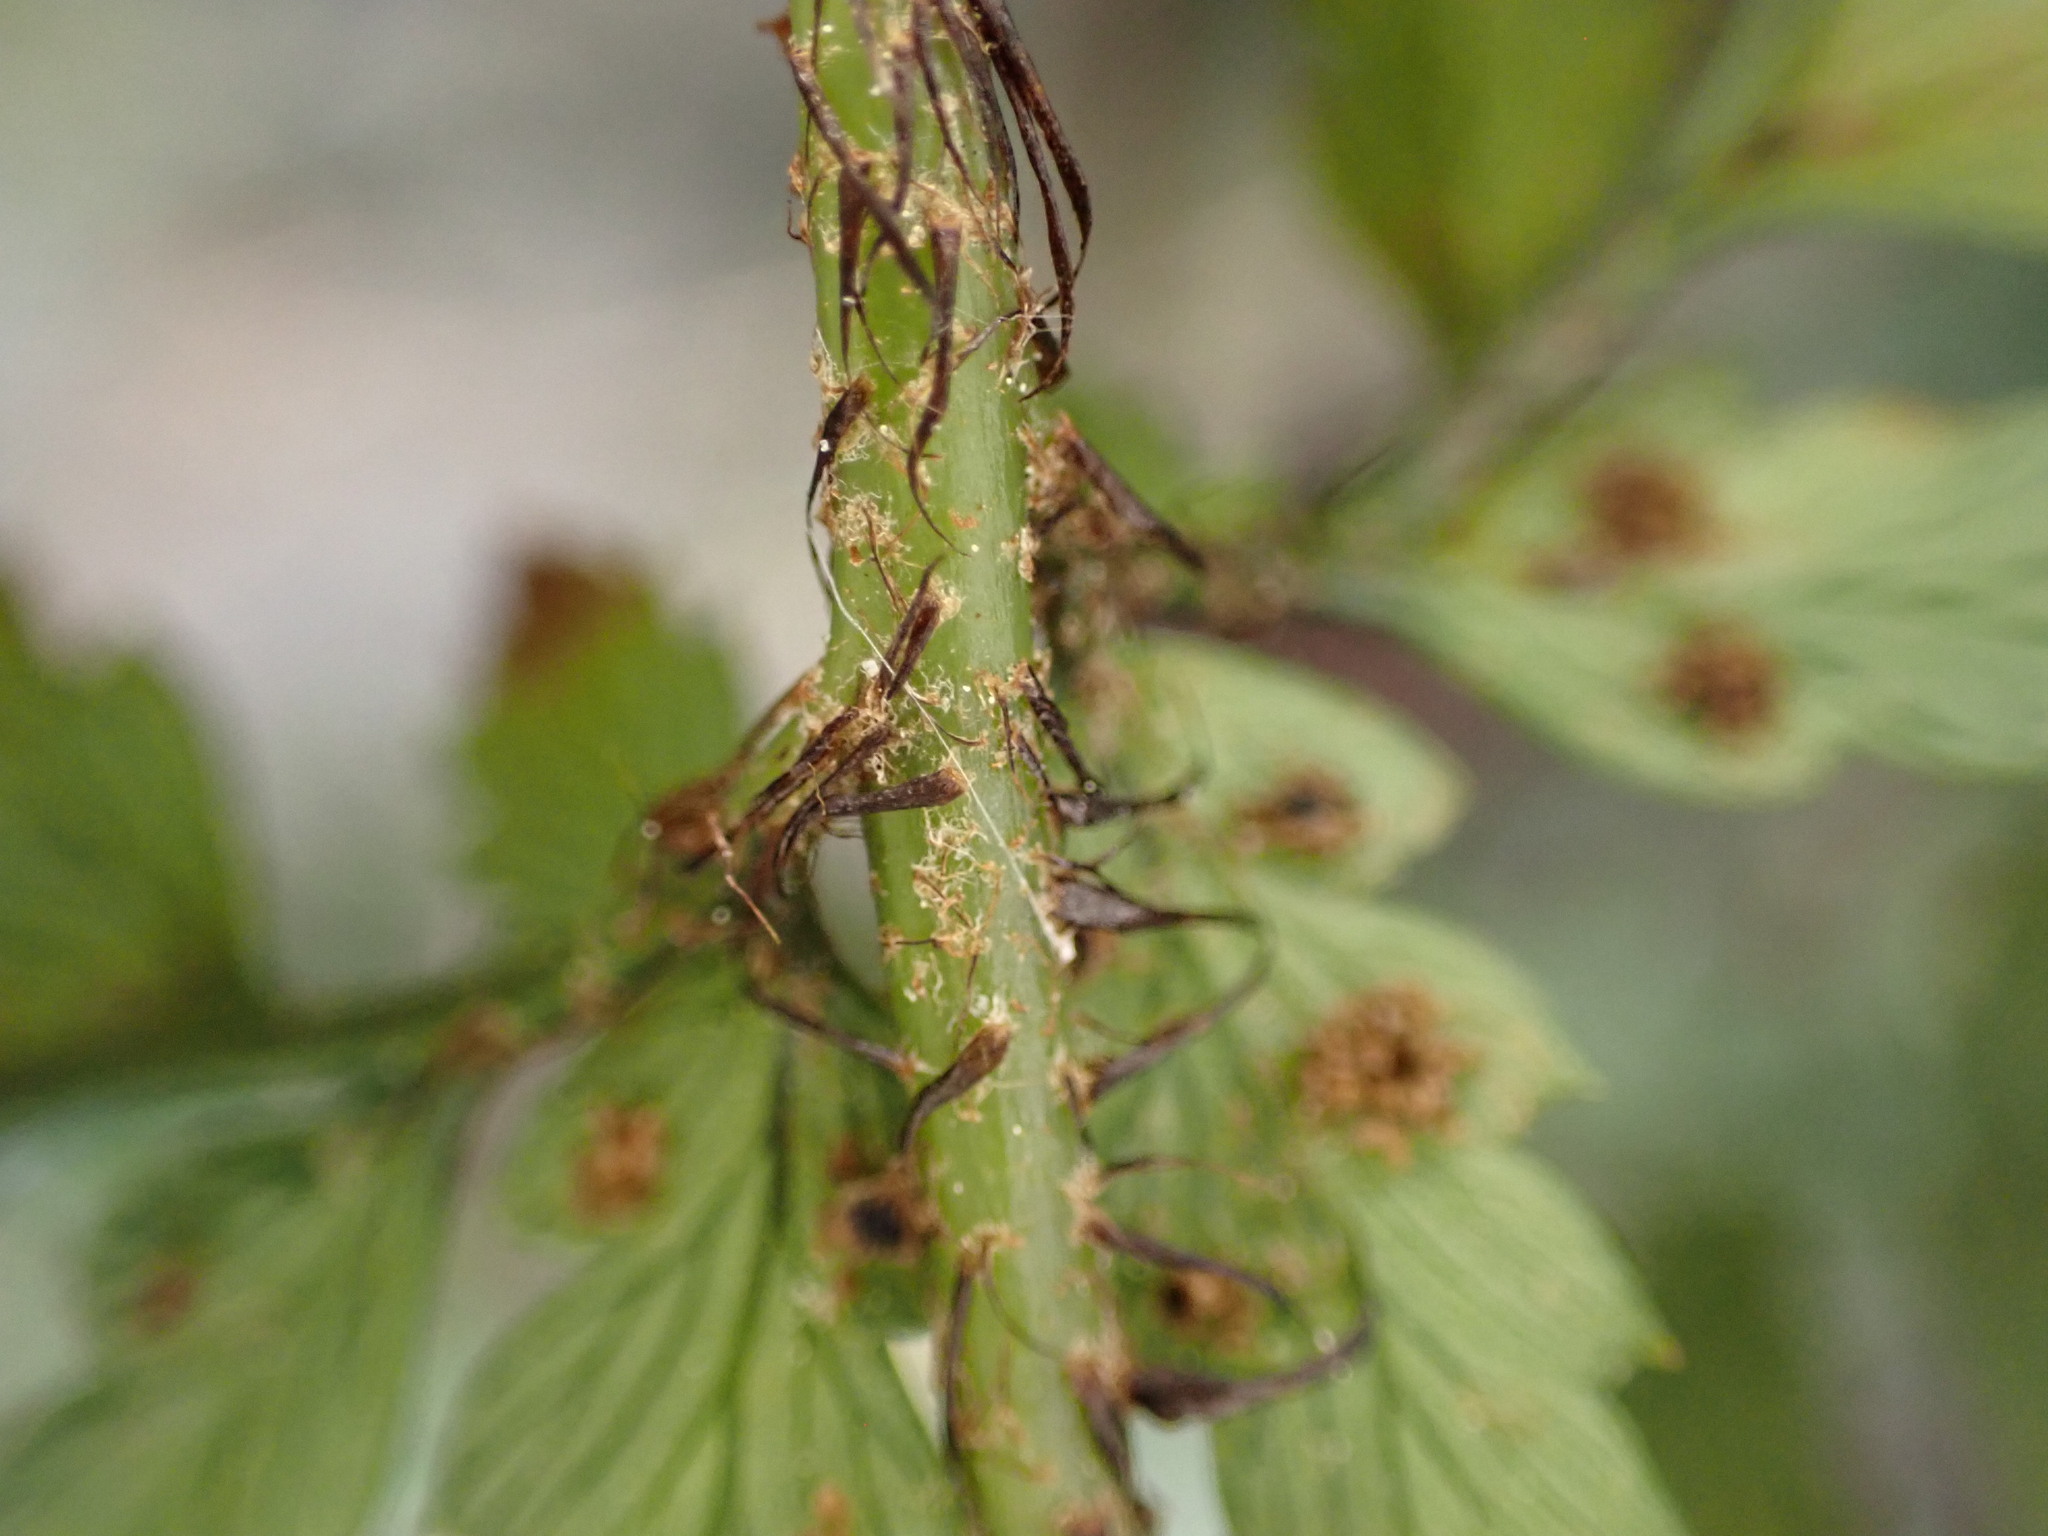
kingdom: Plantae
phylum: Tracheophyta
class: Polypodiopsida
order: Polypodiales
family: Dryopteridaceae
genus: Polystichum
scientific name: Polystichum neozelandicum
